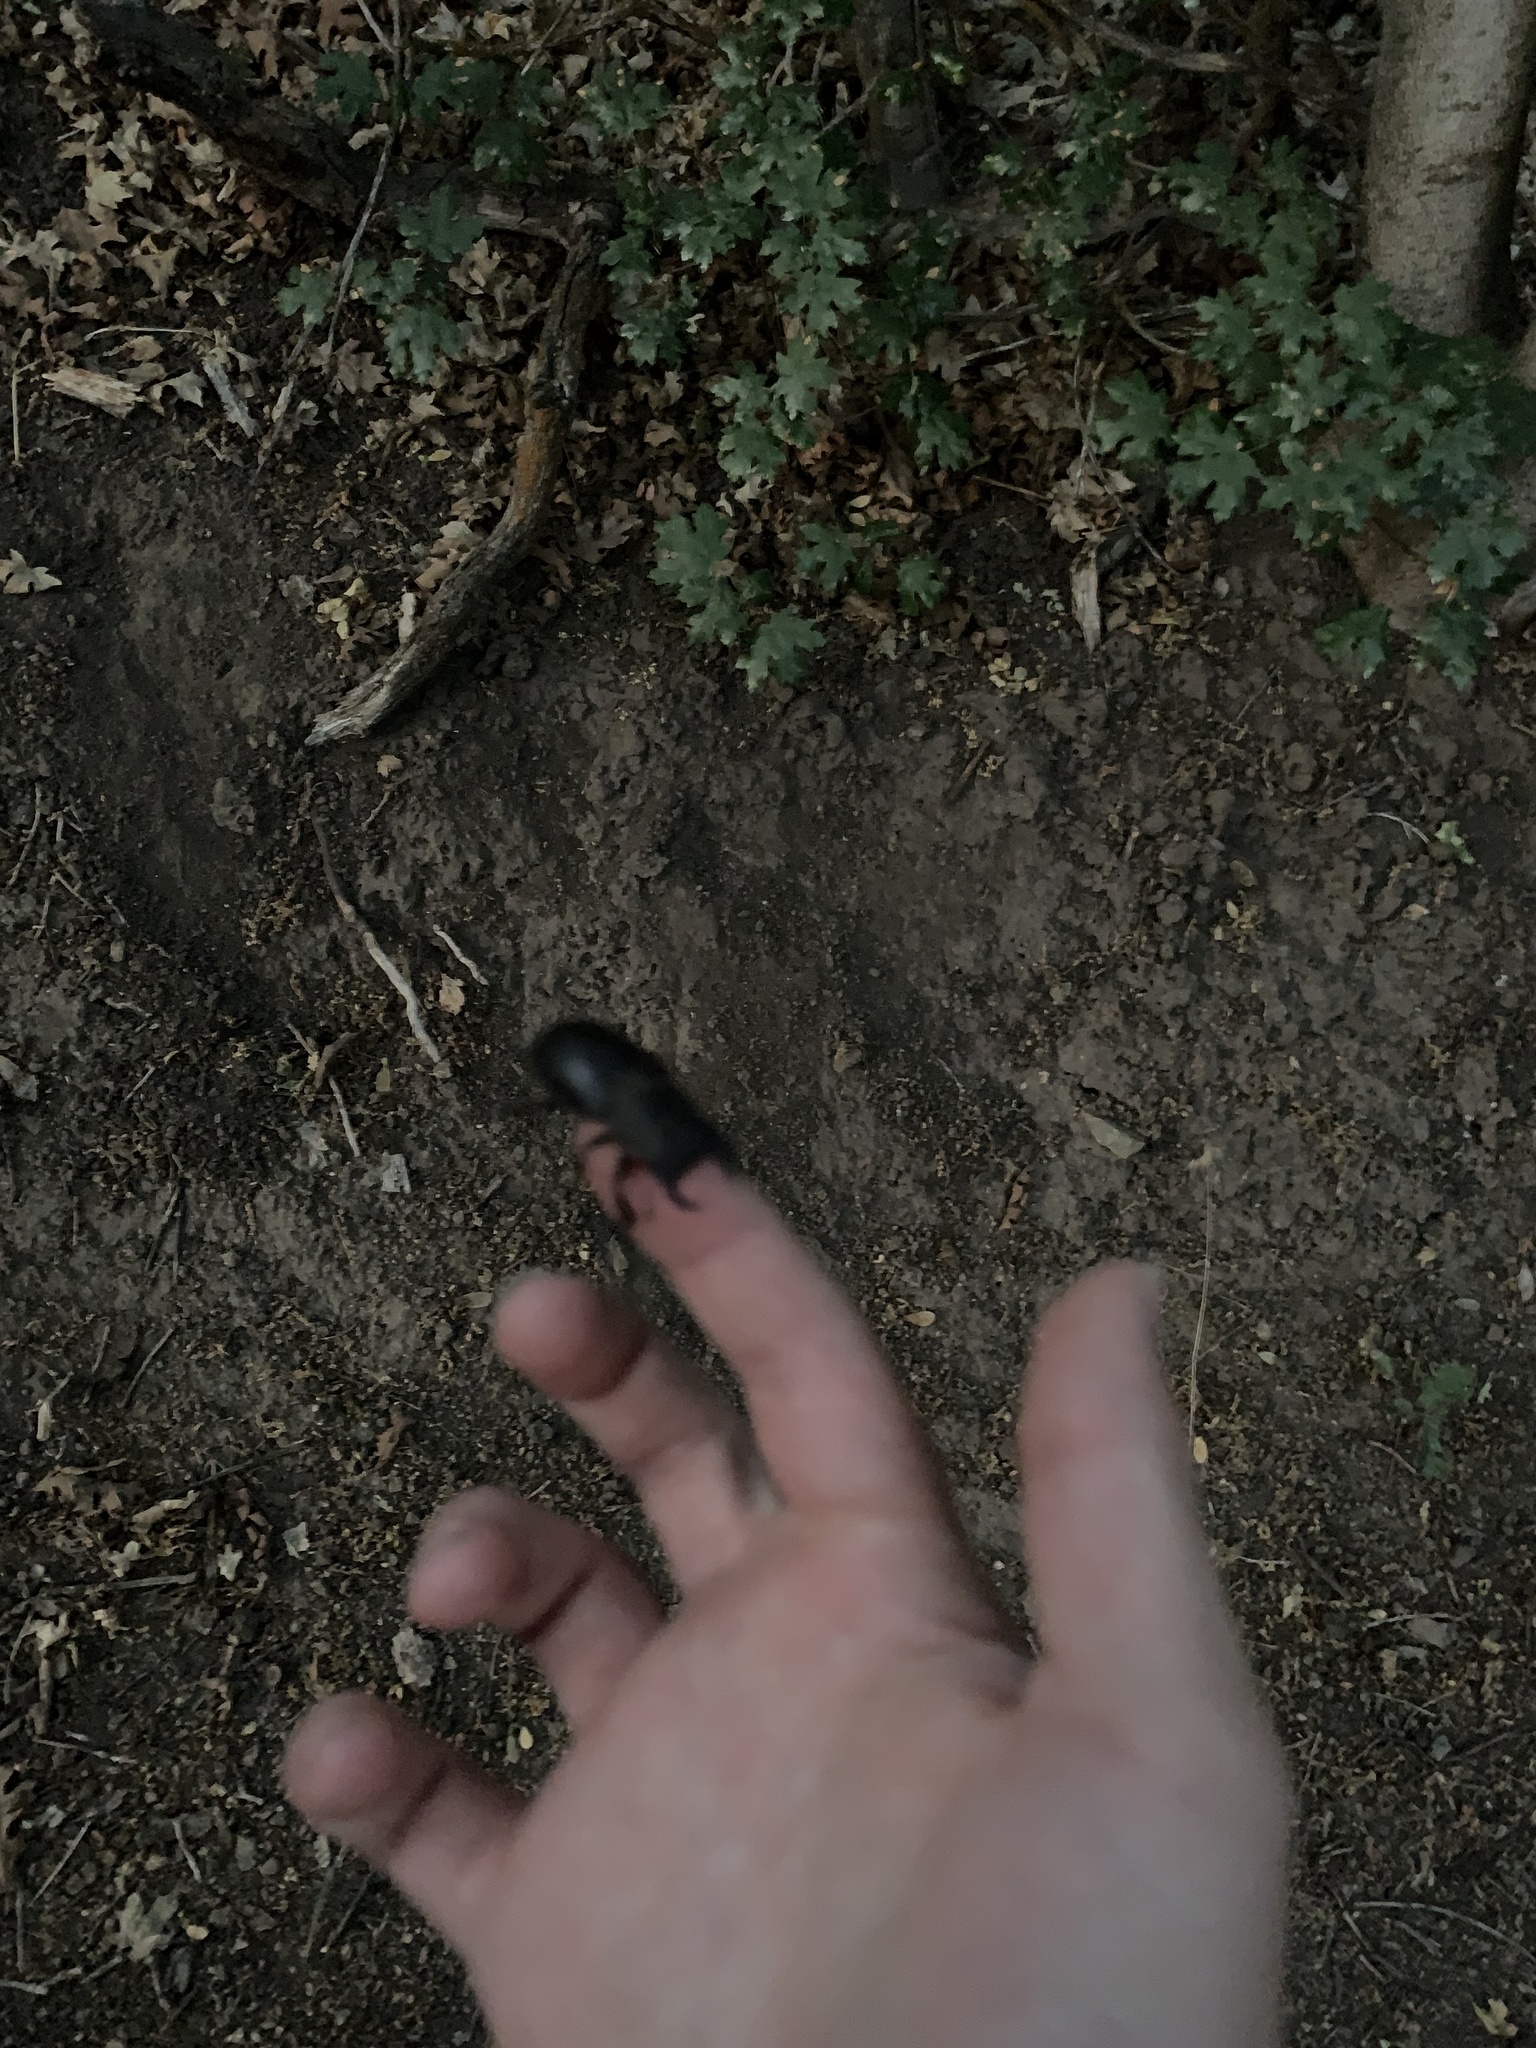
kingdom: Animalia
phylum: Arthropoda
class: Insecta
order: Coleoptera
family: Lucanidae
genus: Lucanus
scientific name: Lucanus mazama
